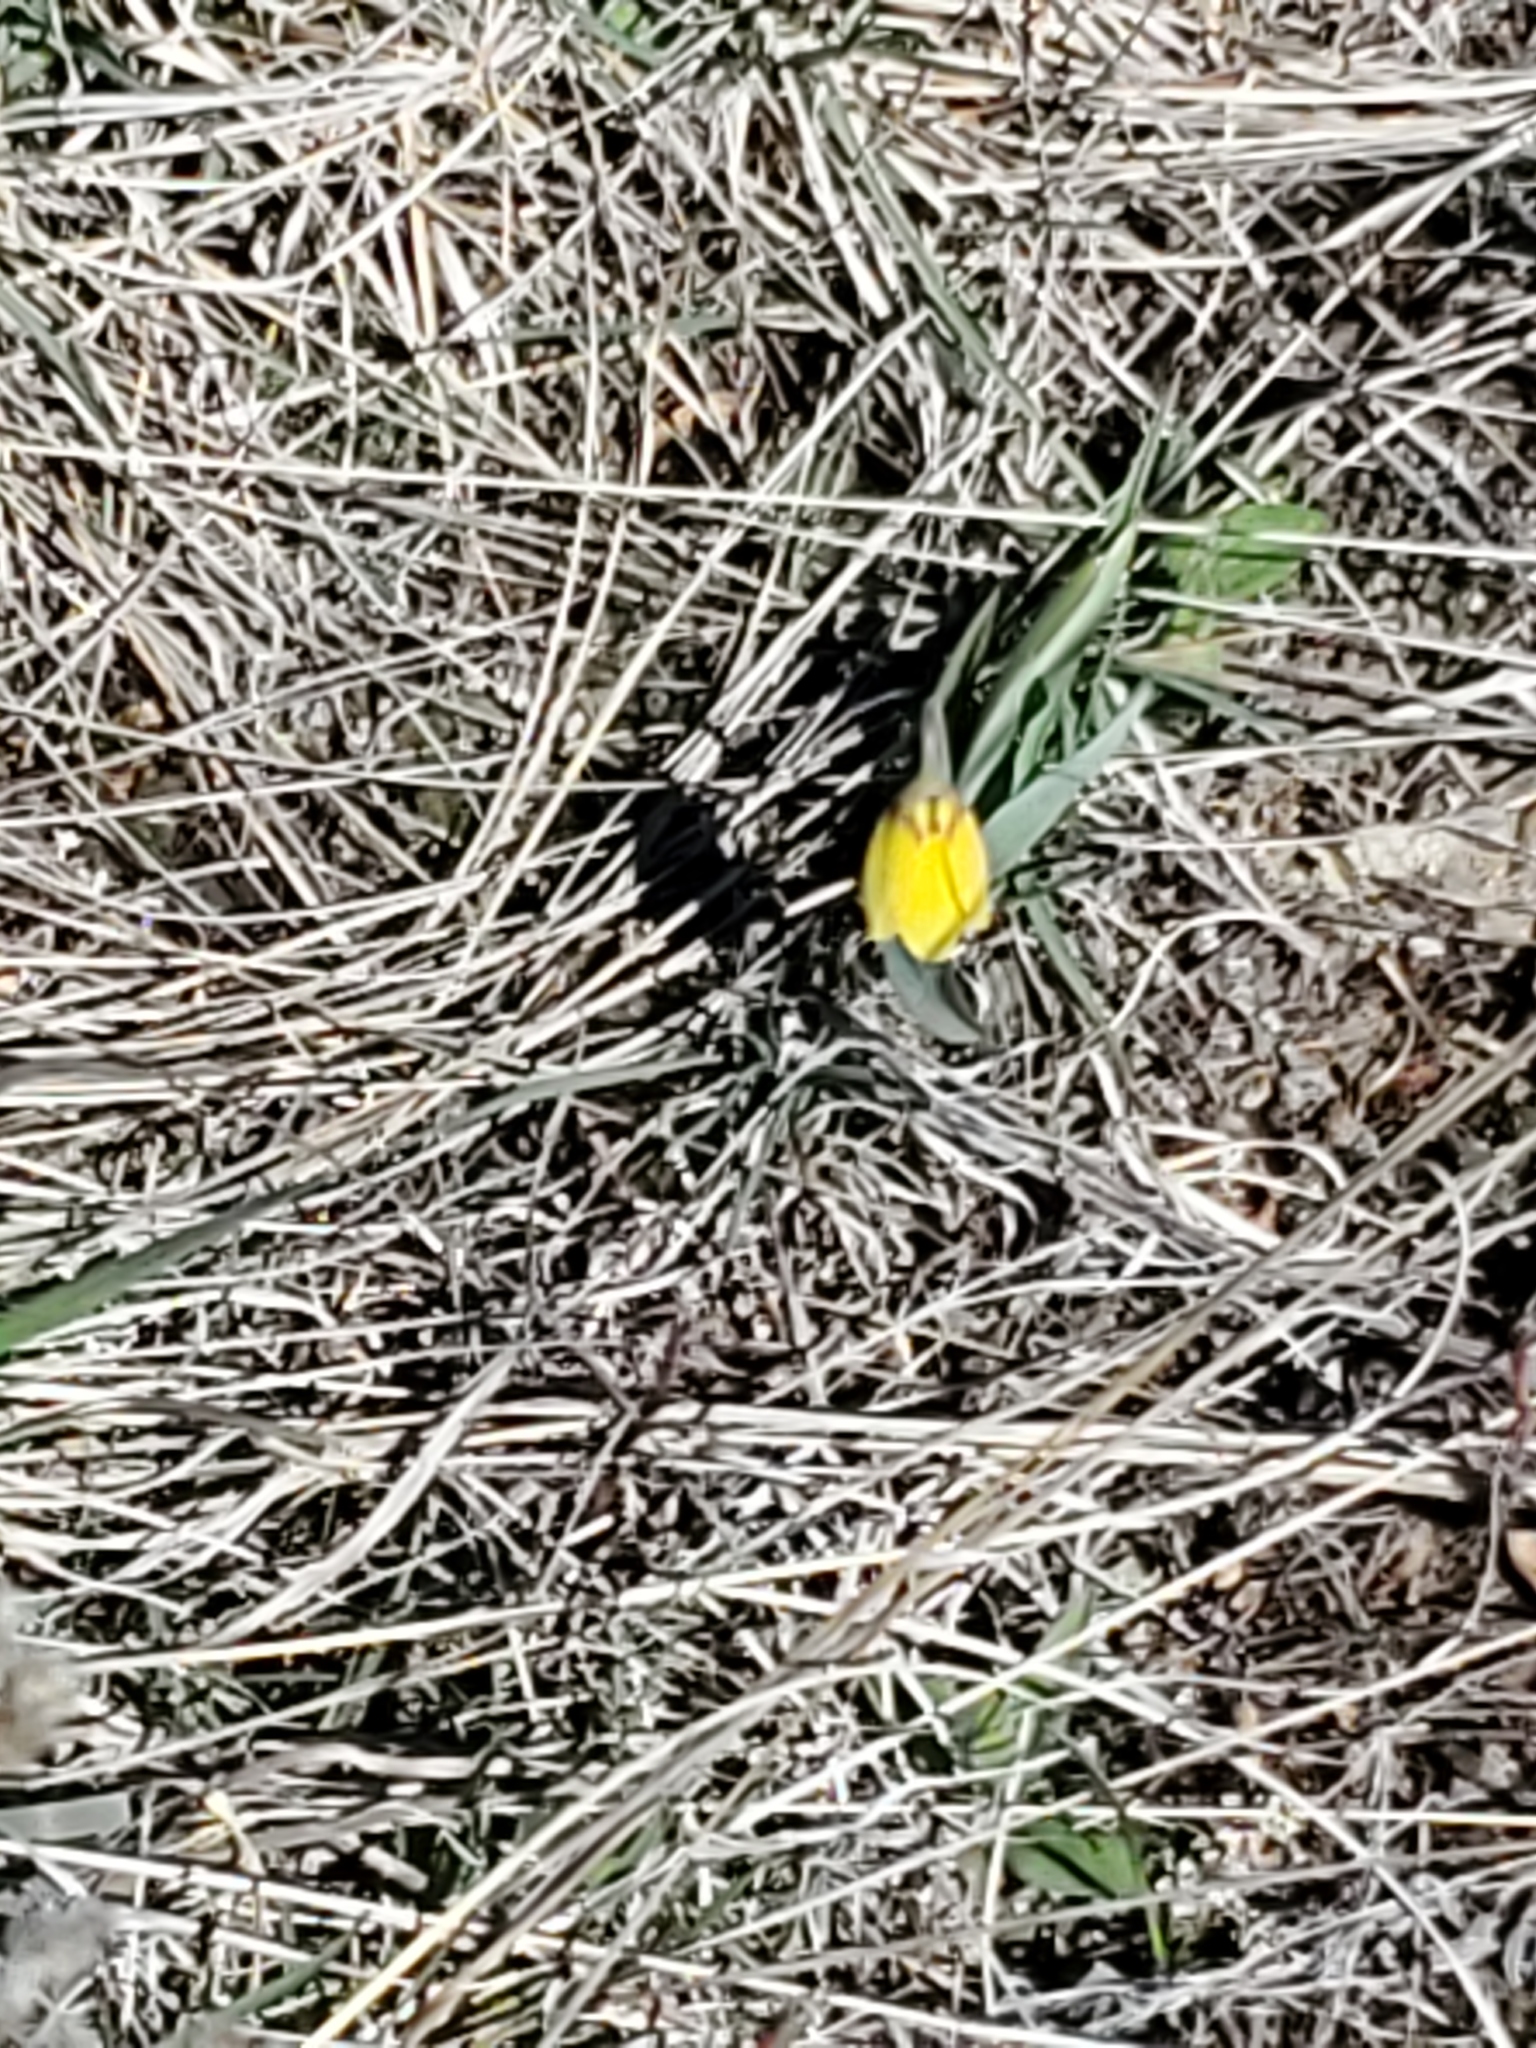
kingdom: Plantae
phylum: Tracheophyta
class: Liliopsida
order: Liliales
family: Liliaceae
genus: Fritillaria
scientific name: Fritillaria pudica
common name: Yellow fritillary
